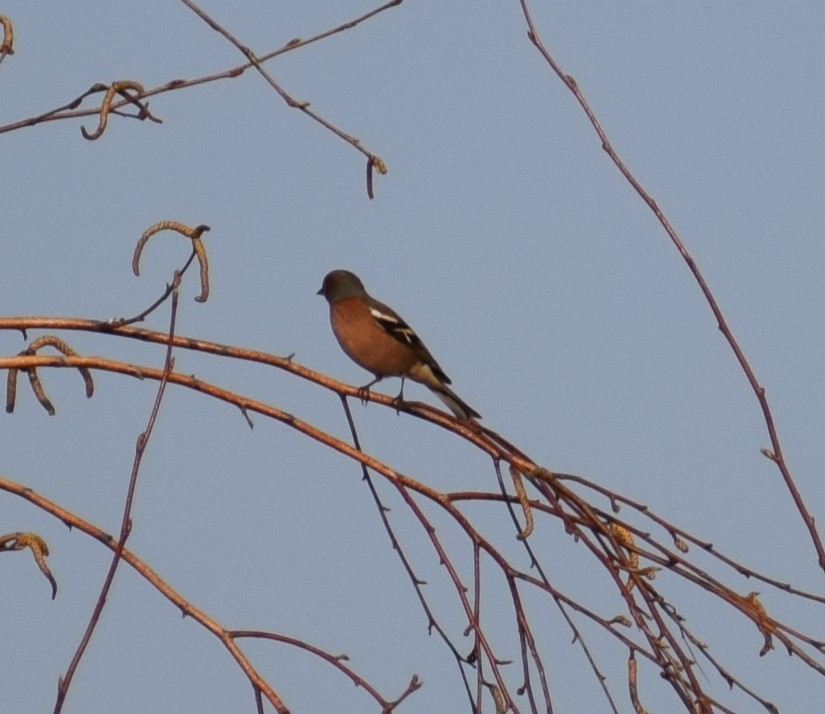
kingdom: Animalia
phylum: Chordata
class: Aves
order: Passeriformes
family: Fringillidae
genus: Fringilla
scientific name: Fringilla coelebs
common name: Common chaffinch
